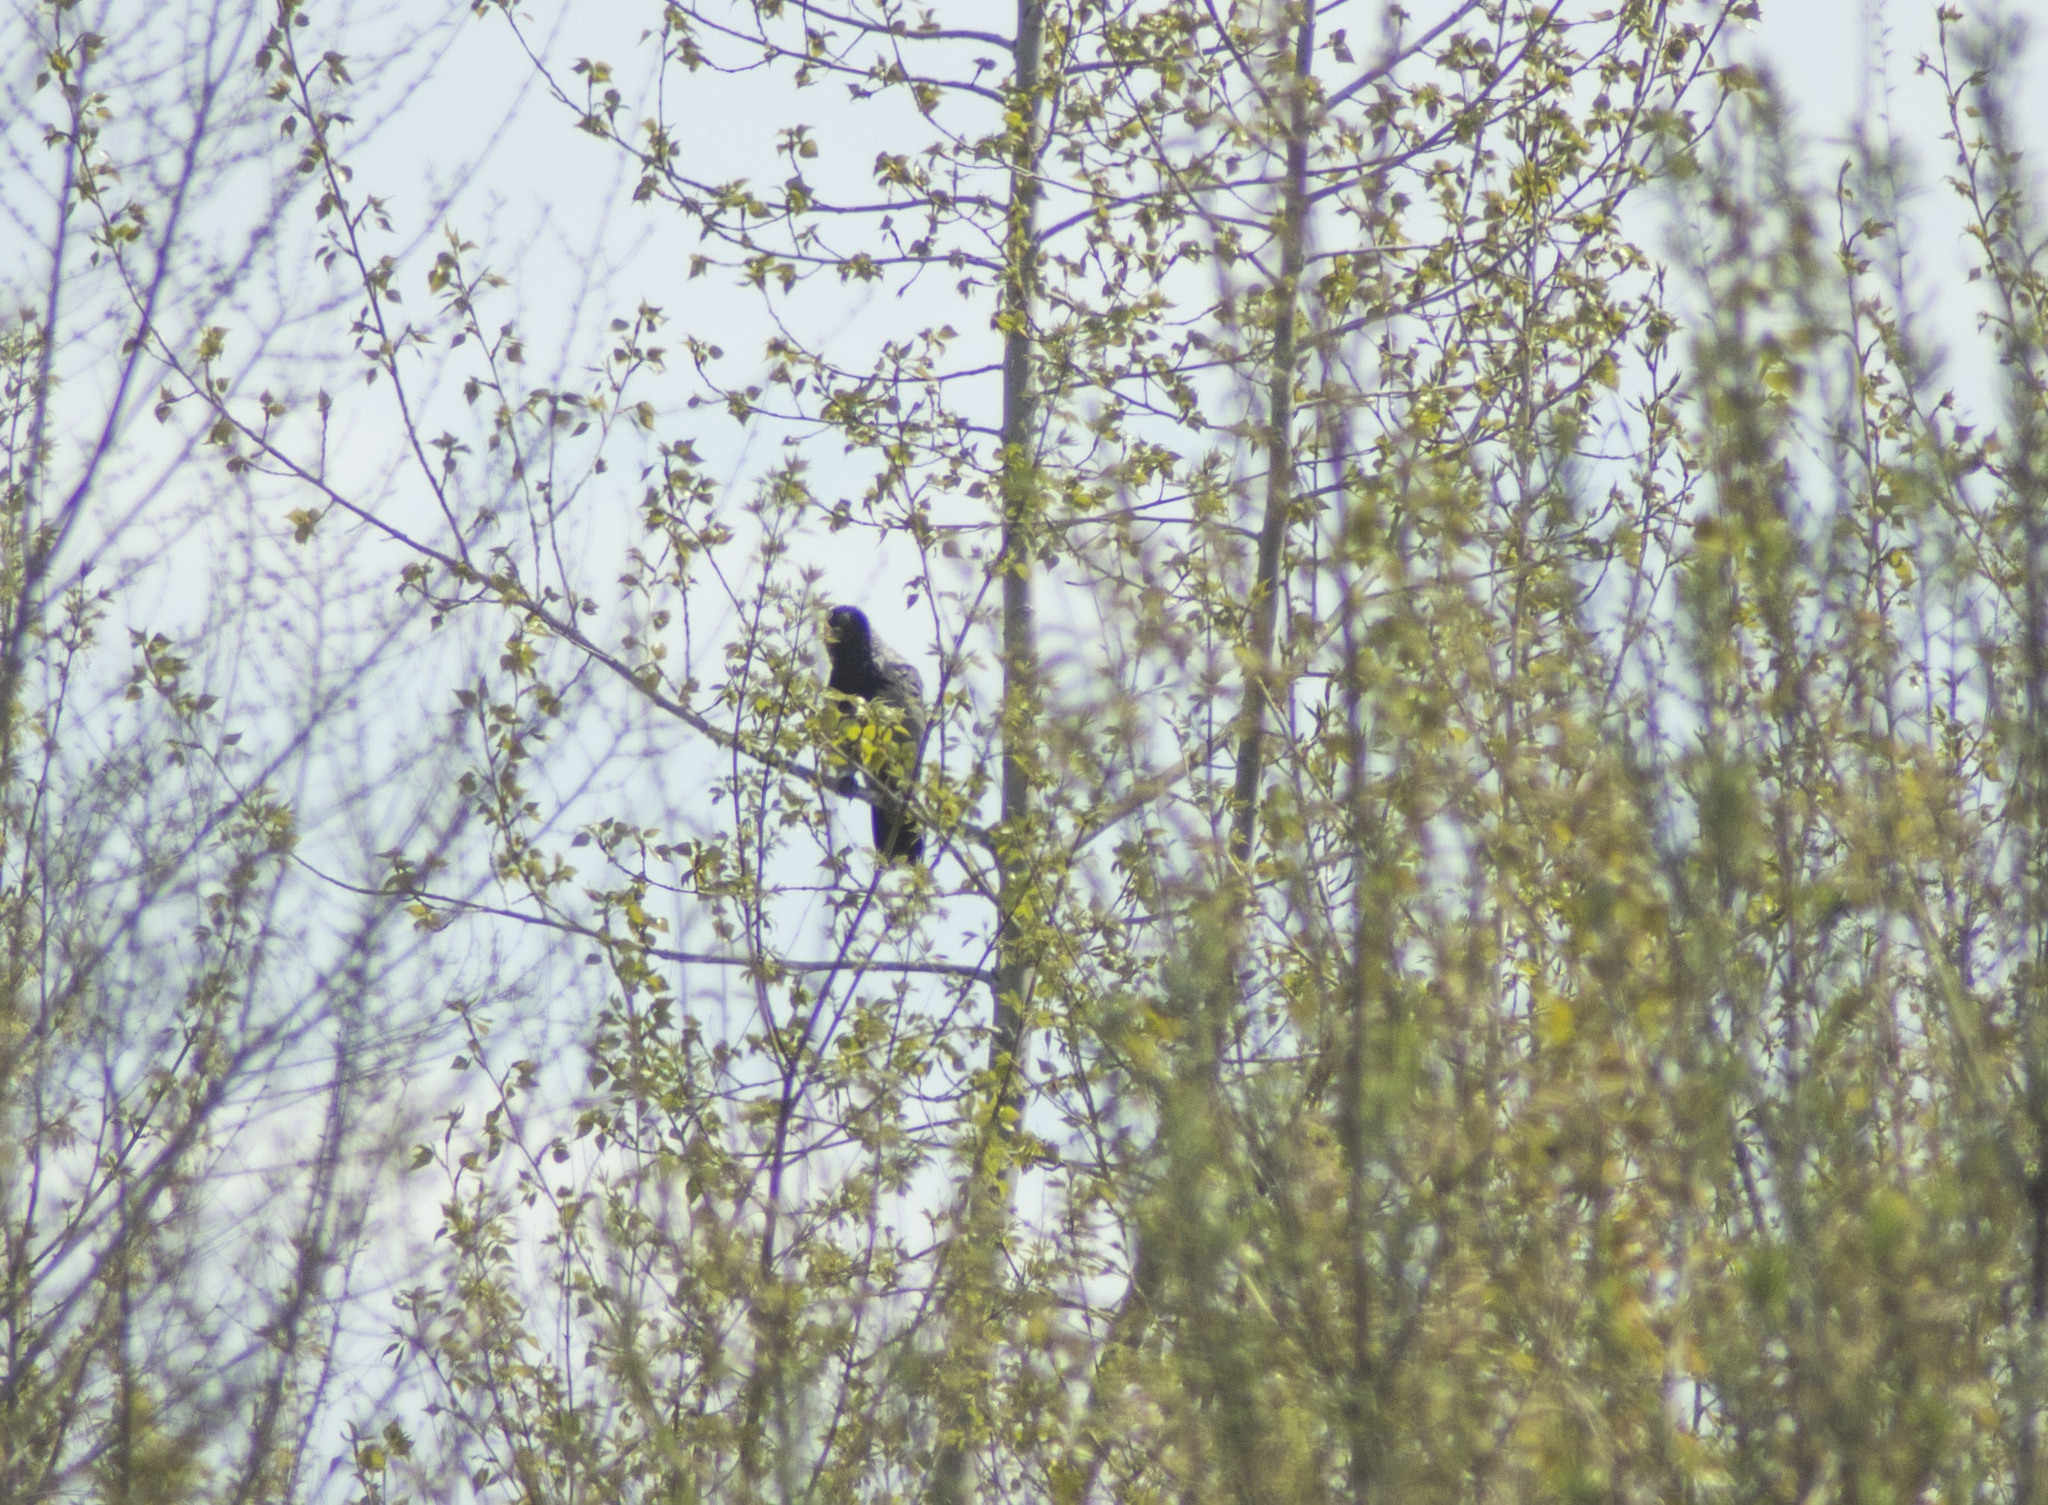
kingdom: Animalia
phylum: Chordata
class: Aves
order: Passeriformes
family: Corvidae
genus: Corvus
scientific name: Corvus cornix
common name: Hooded crow
